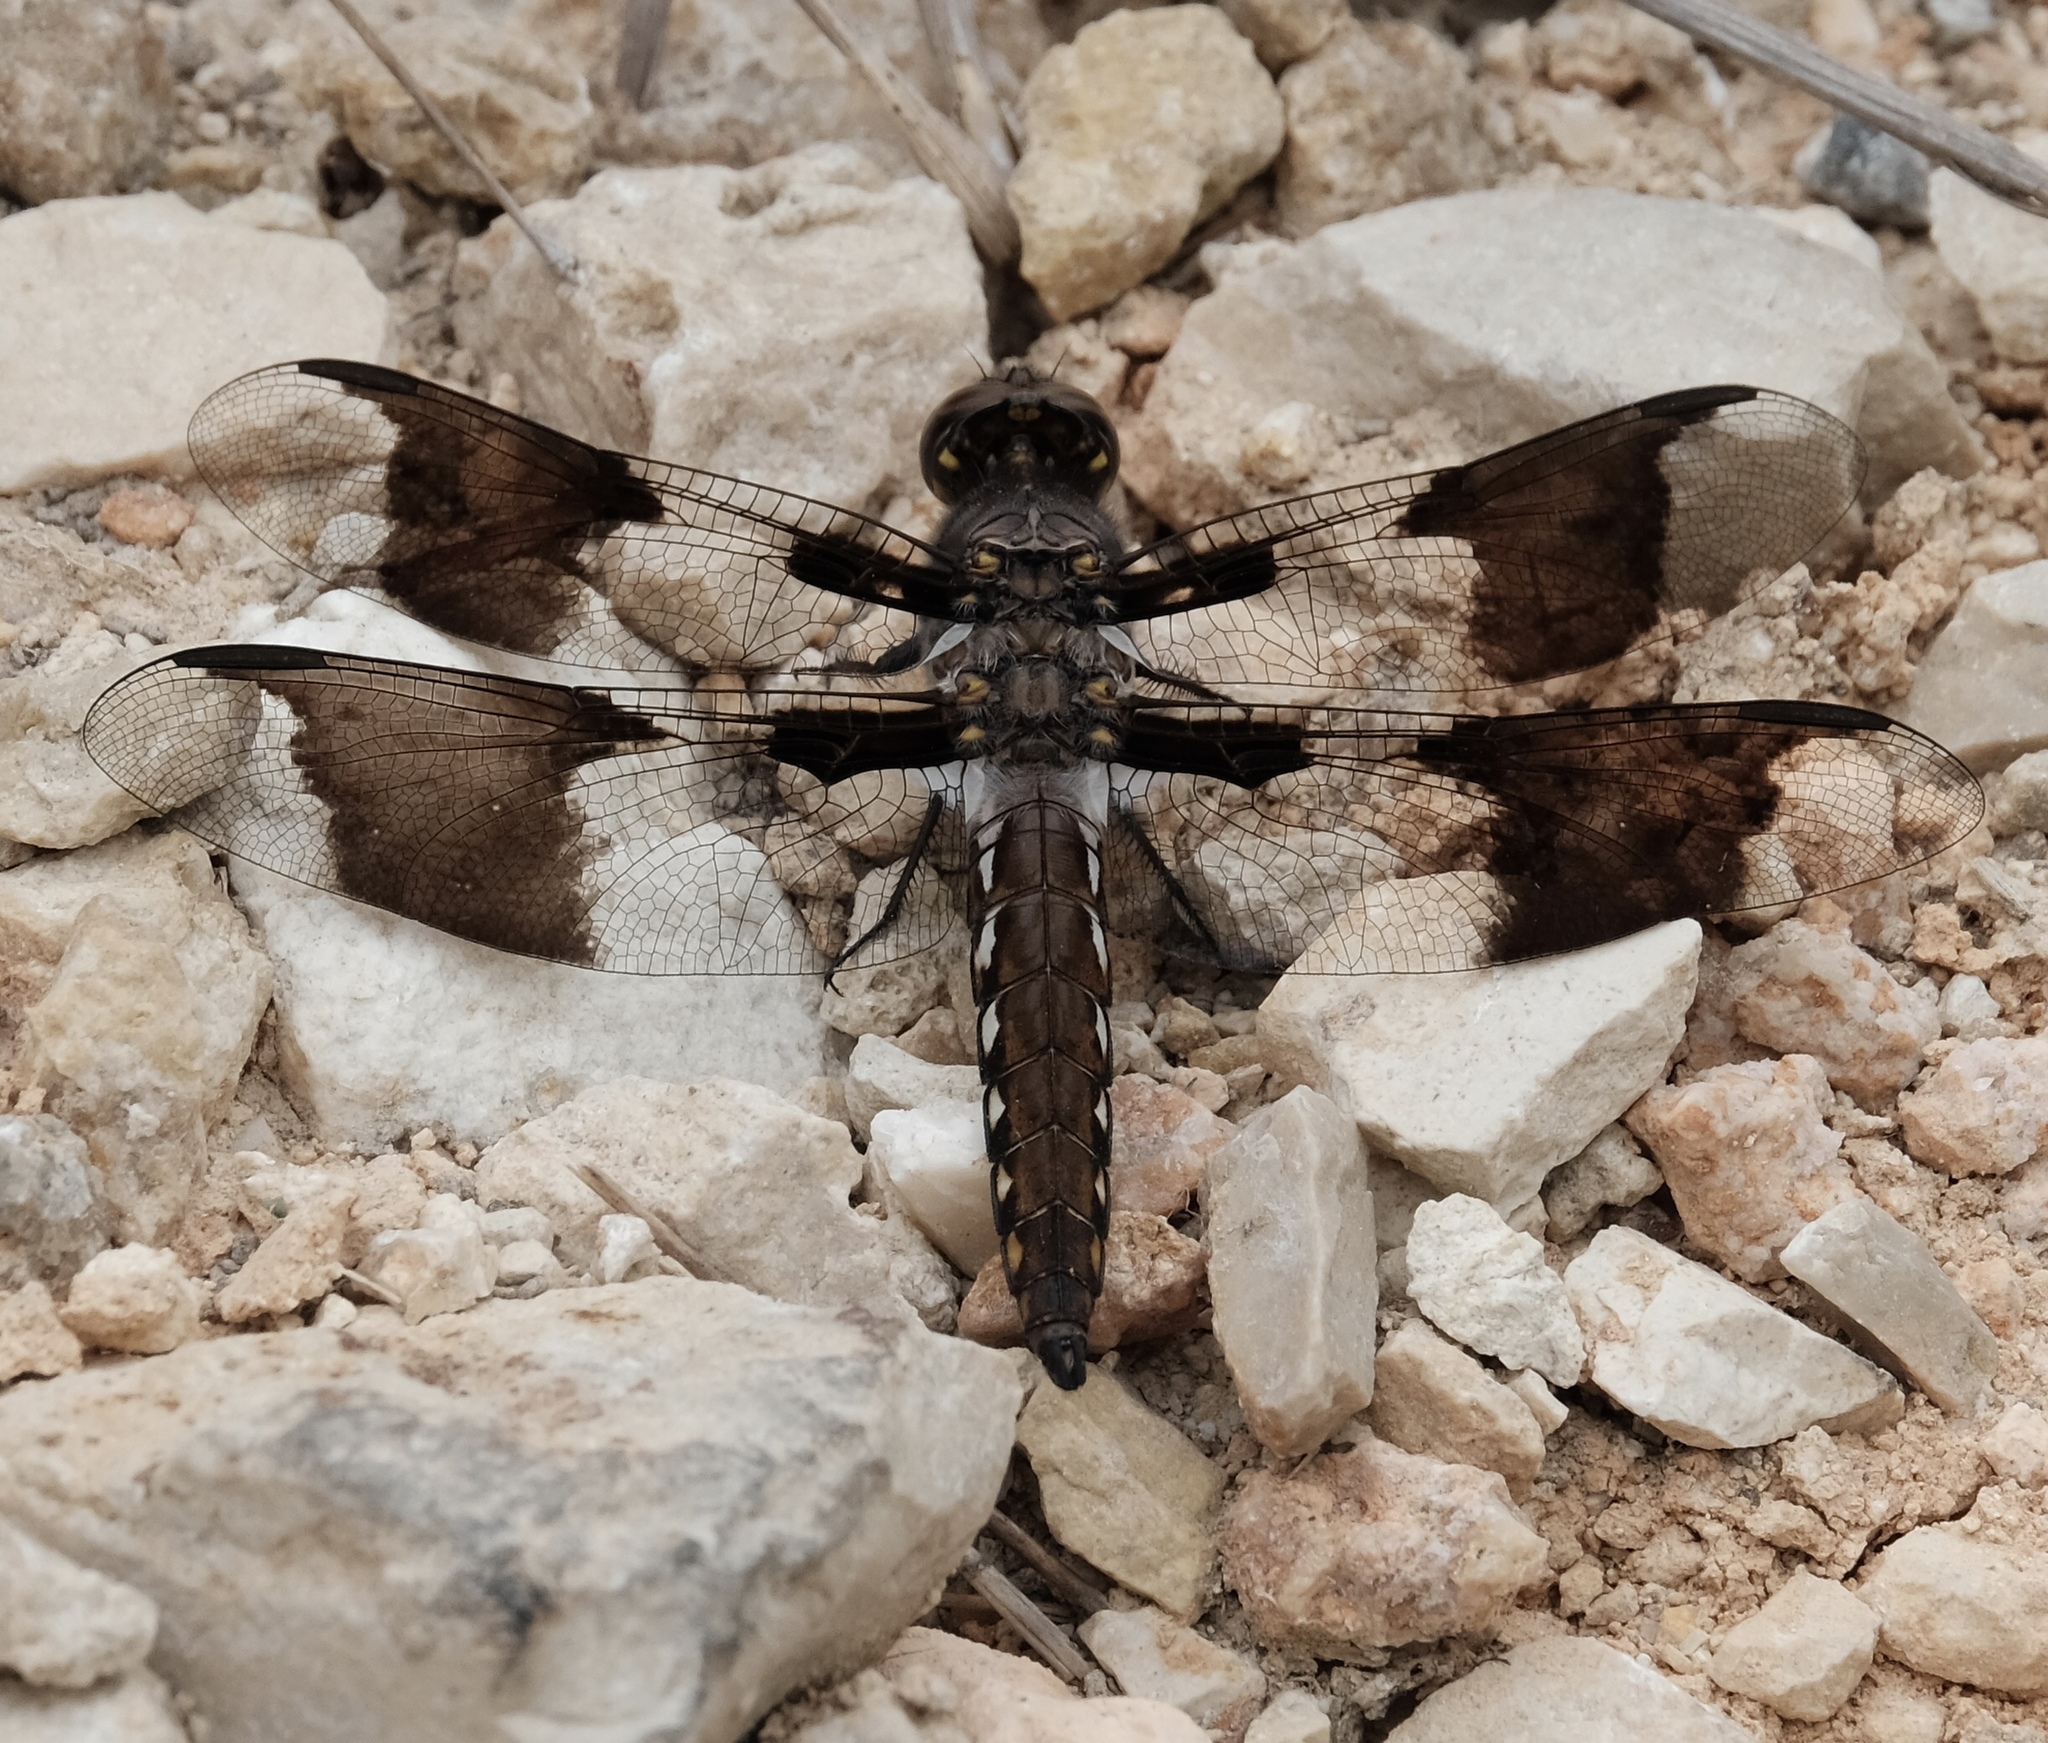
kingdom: Animalia
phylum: Arthropoda
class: Insecta
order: Odonata
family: Libellulidae
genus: Plathemis
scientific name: Plathemis lydia
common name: Common whitetail
